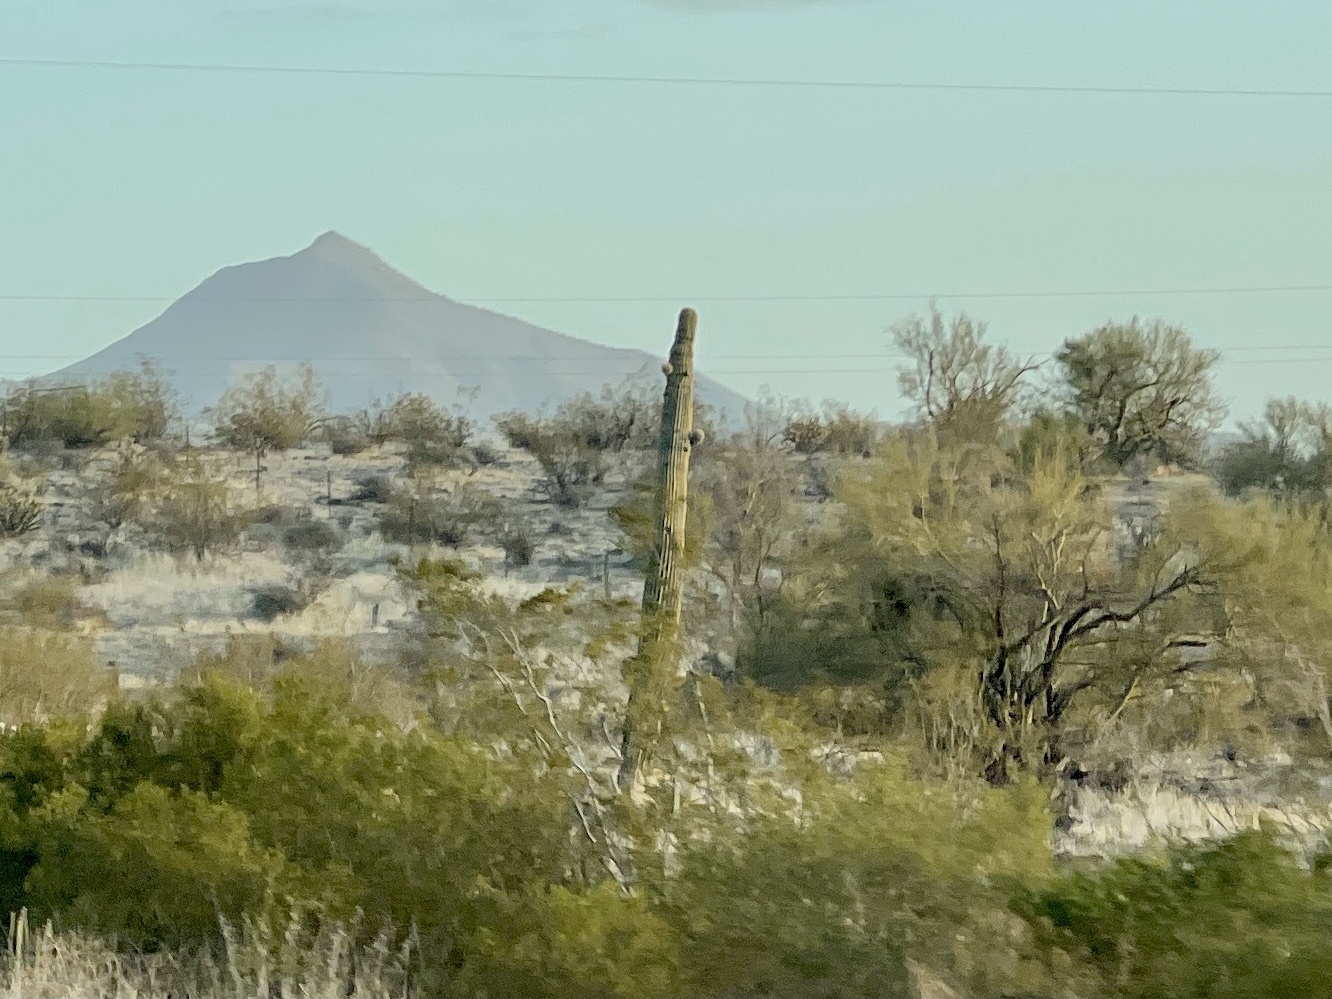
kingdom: Plantae
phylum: Tracheophyta
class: Magnoliopsida
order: Caryophyllales
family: Cactaceae
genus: Carnegiea
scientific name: Carnegiea gigantea
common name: Saguaro
